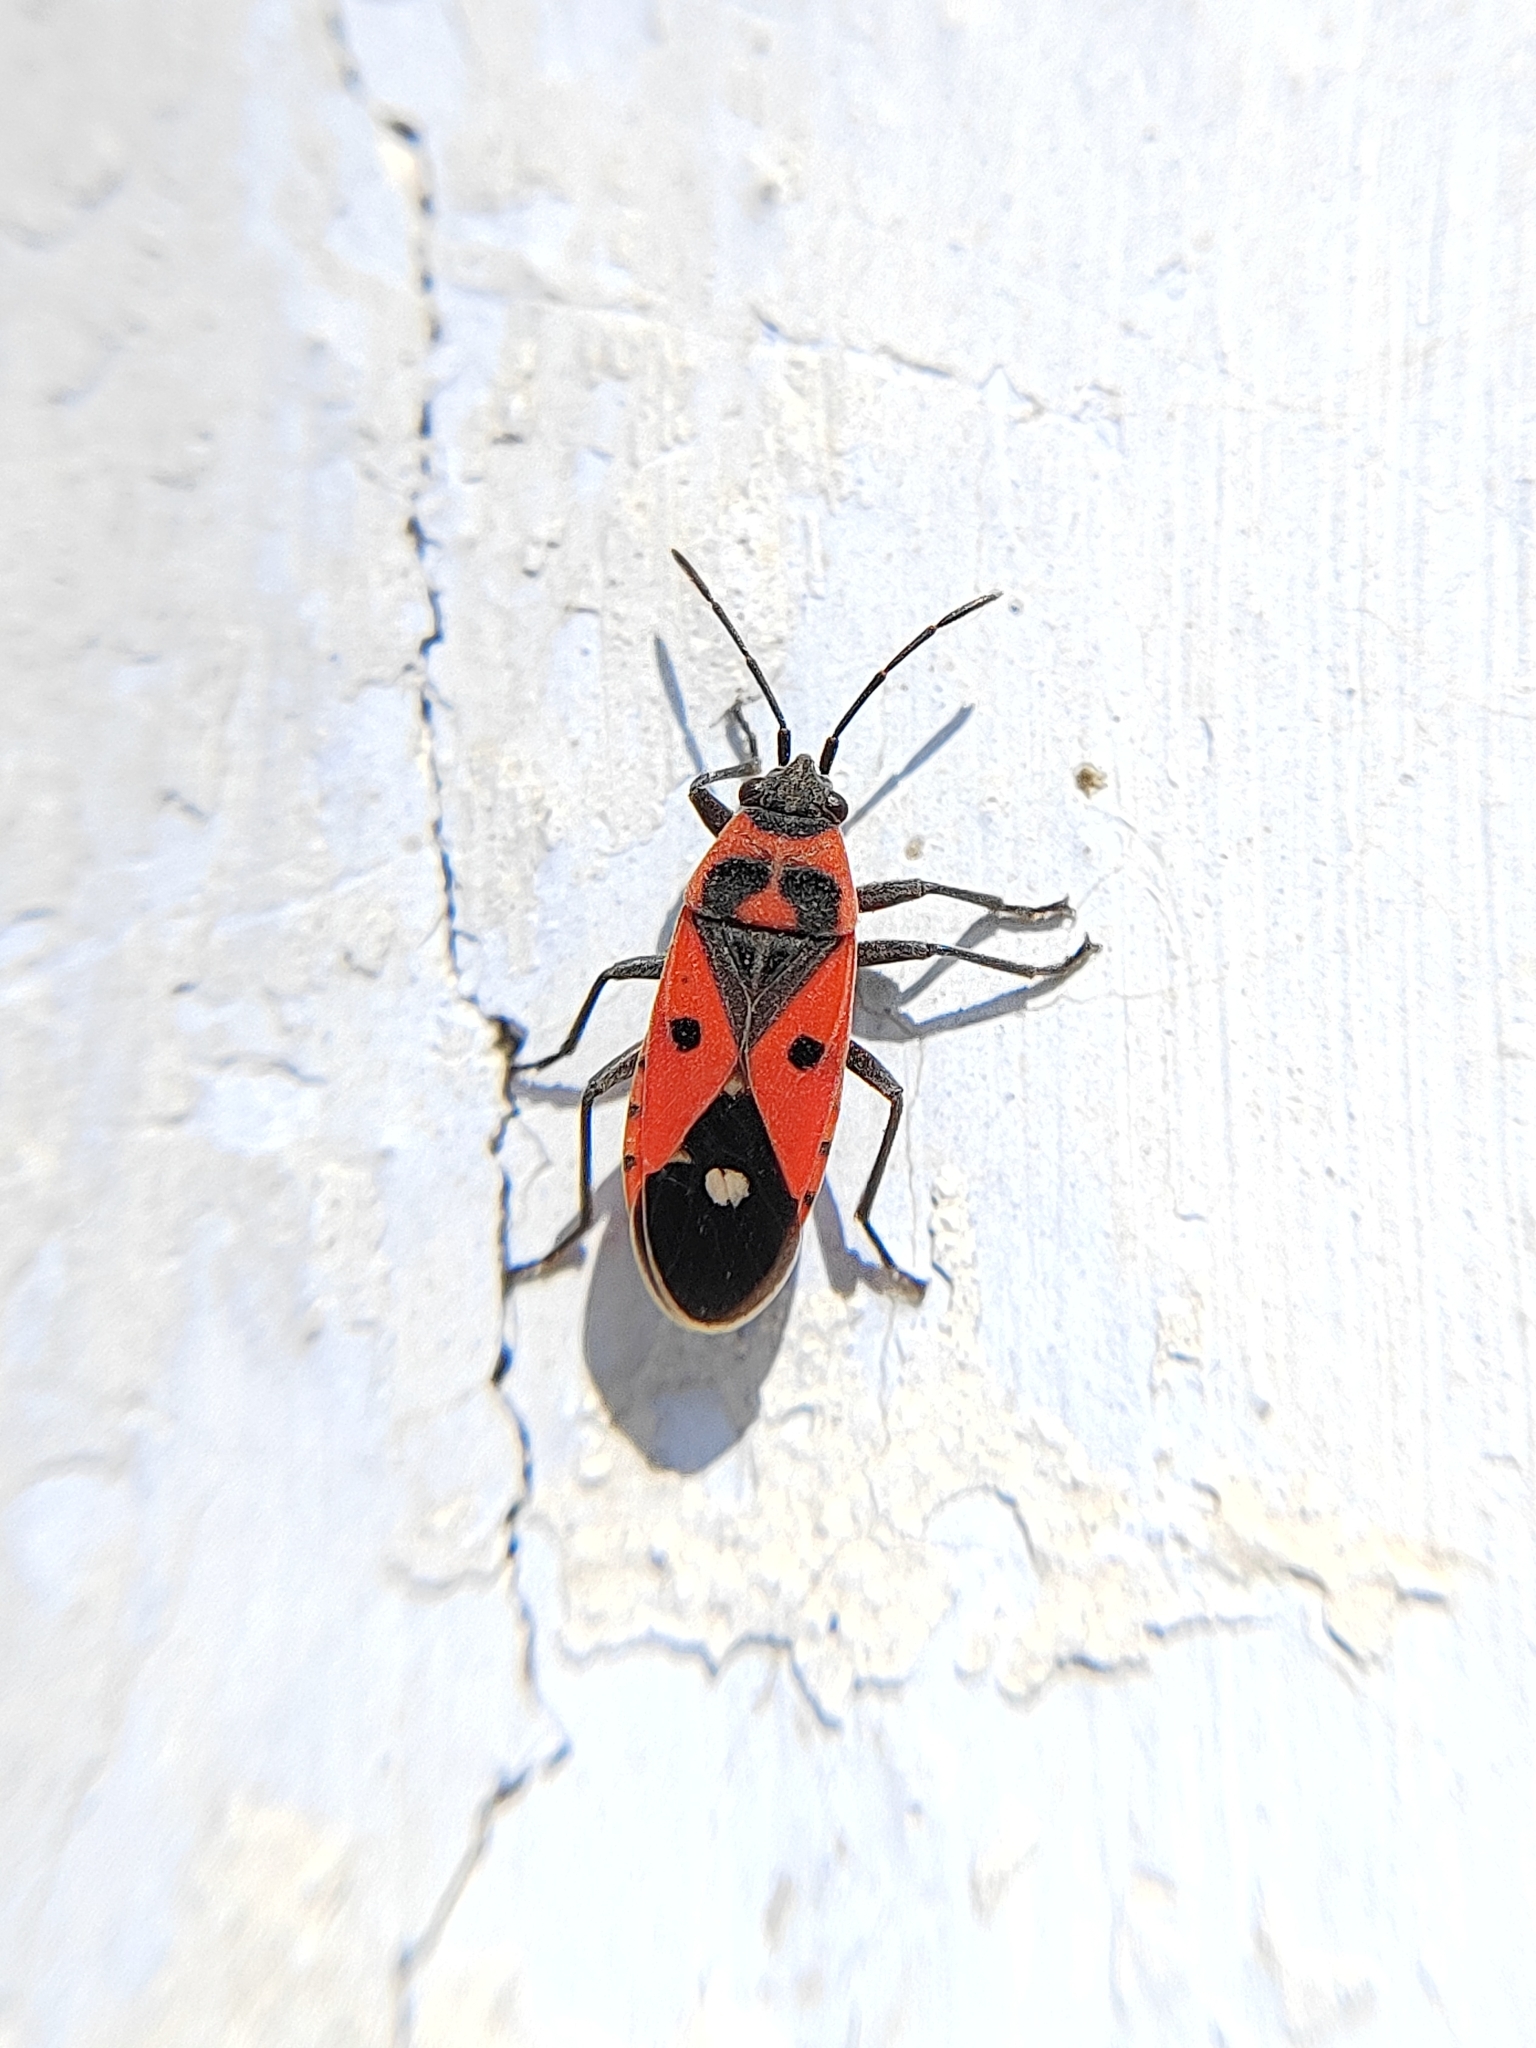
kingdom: Animalia
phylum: Arthropoda
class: Insecta
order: Hemiptera
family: Lygaeidae
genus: Melanocoryphus
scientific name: Melanocoryphus albomaculatus
